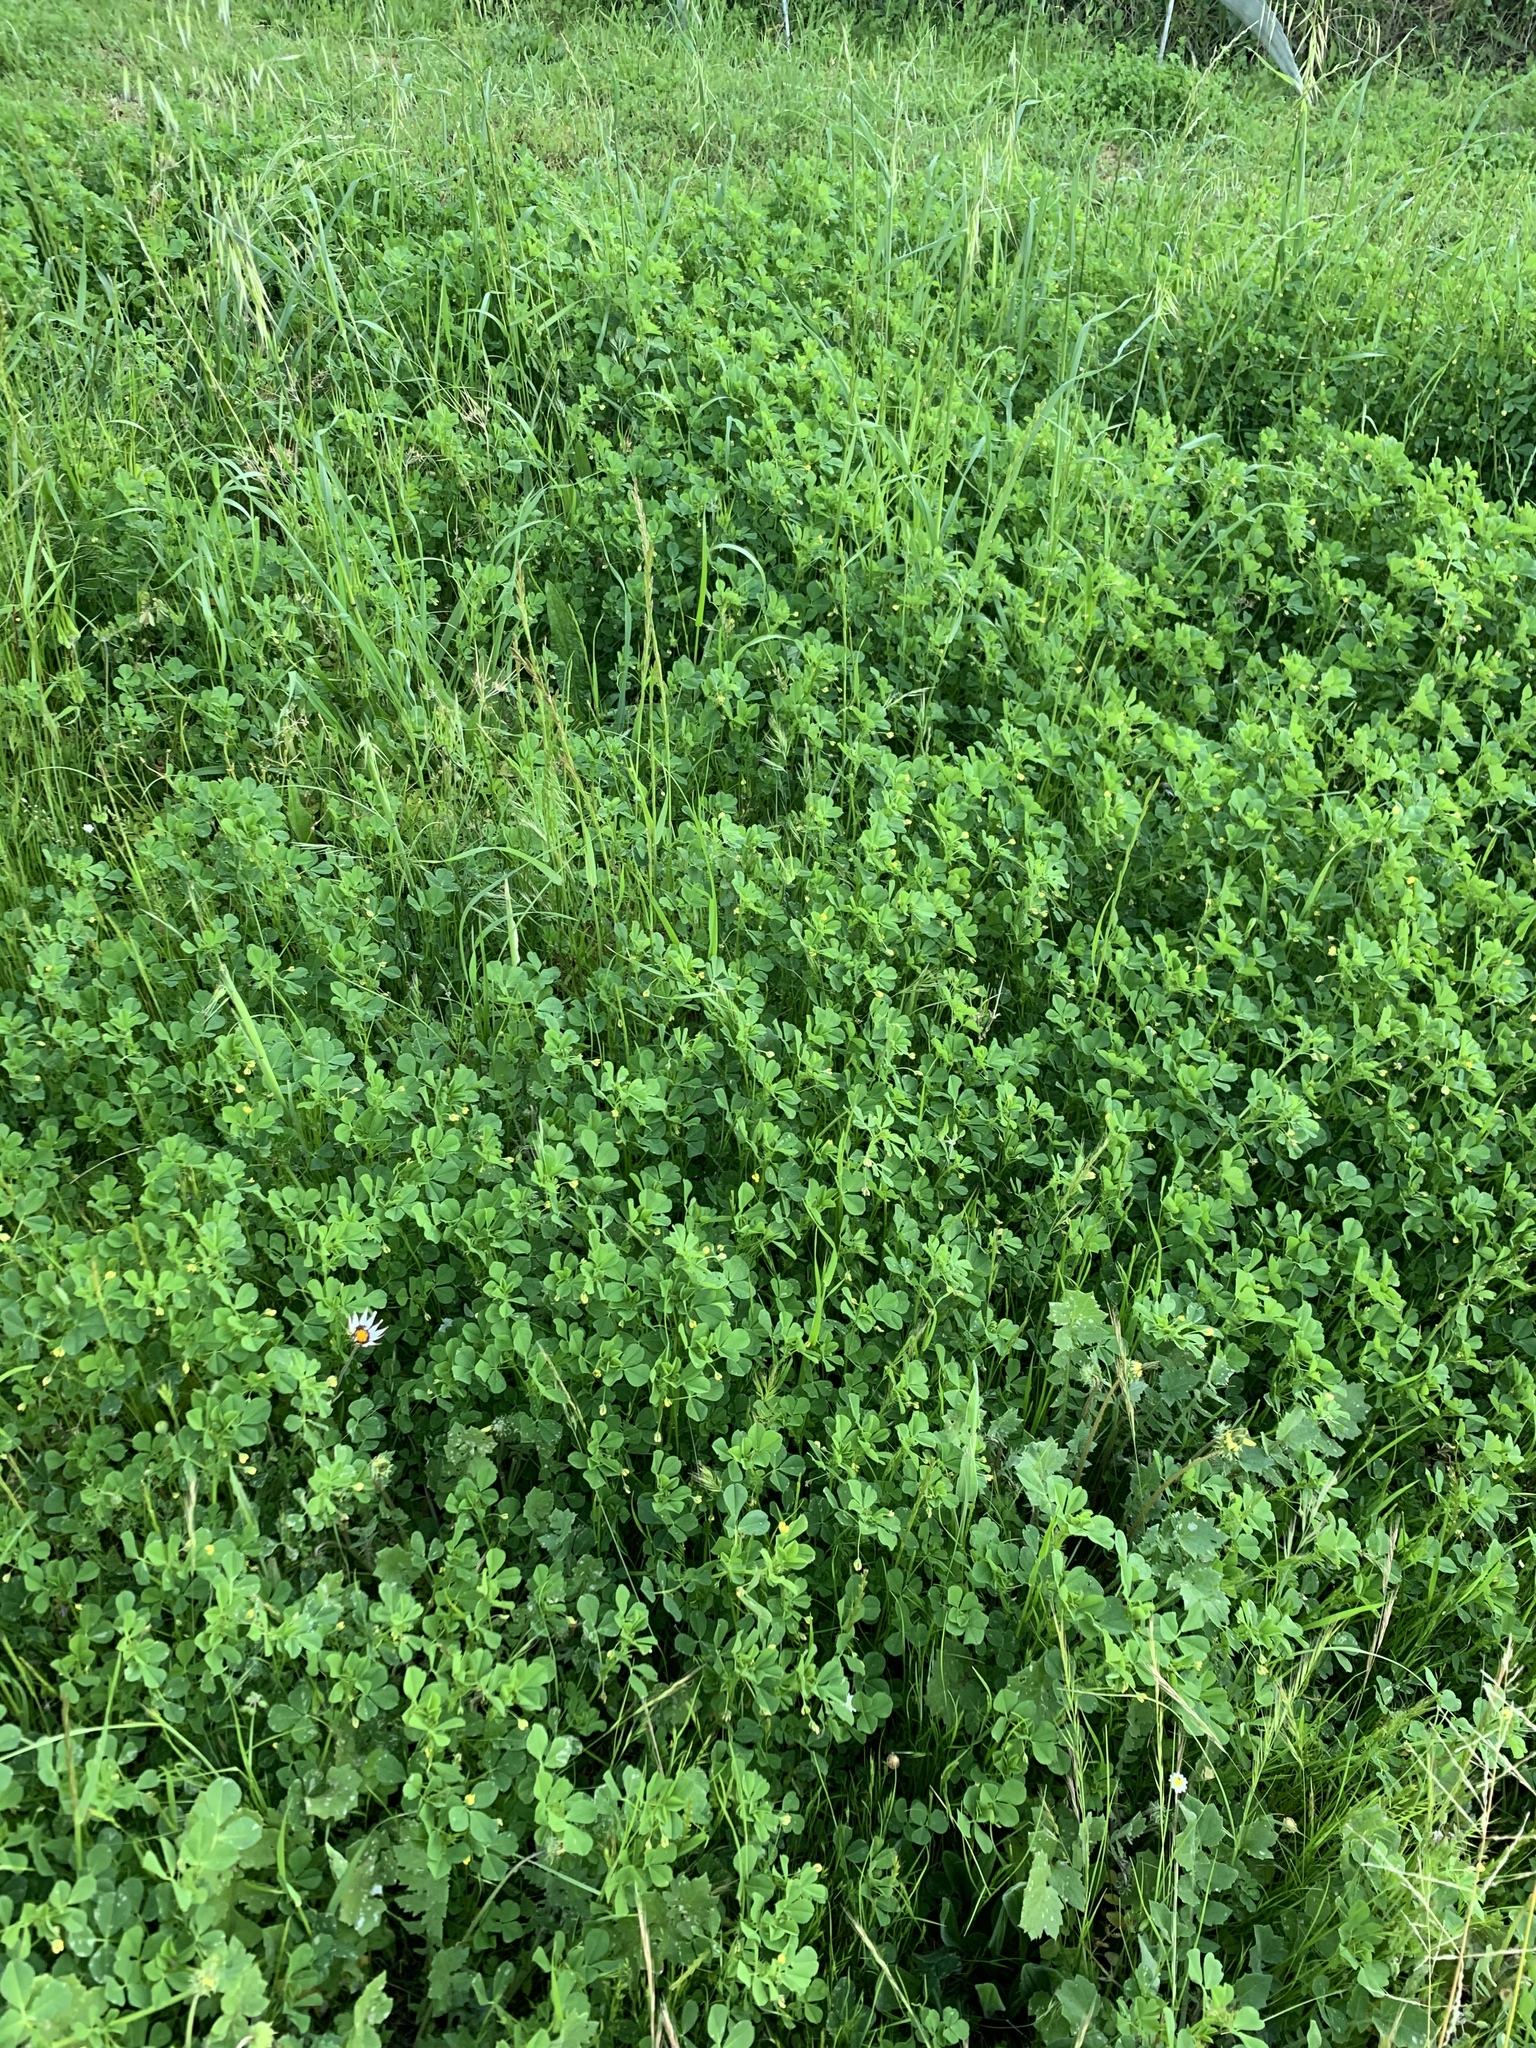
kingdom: Plantae
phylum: Tracheophyta
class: Magnoliopsida
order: Fabales
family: Fabaceae
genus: Medicago
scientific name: Medicago polymorpha
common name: Burclover
